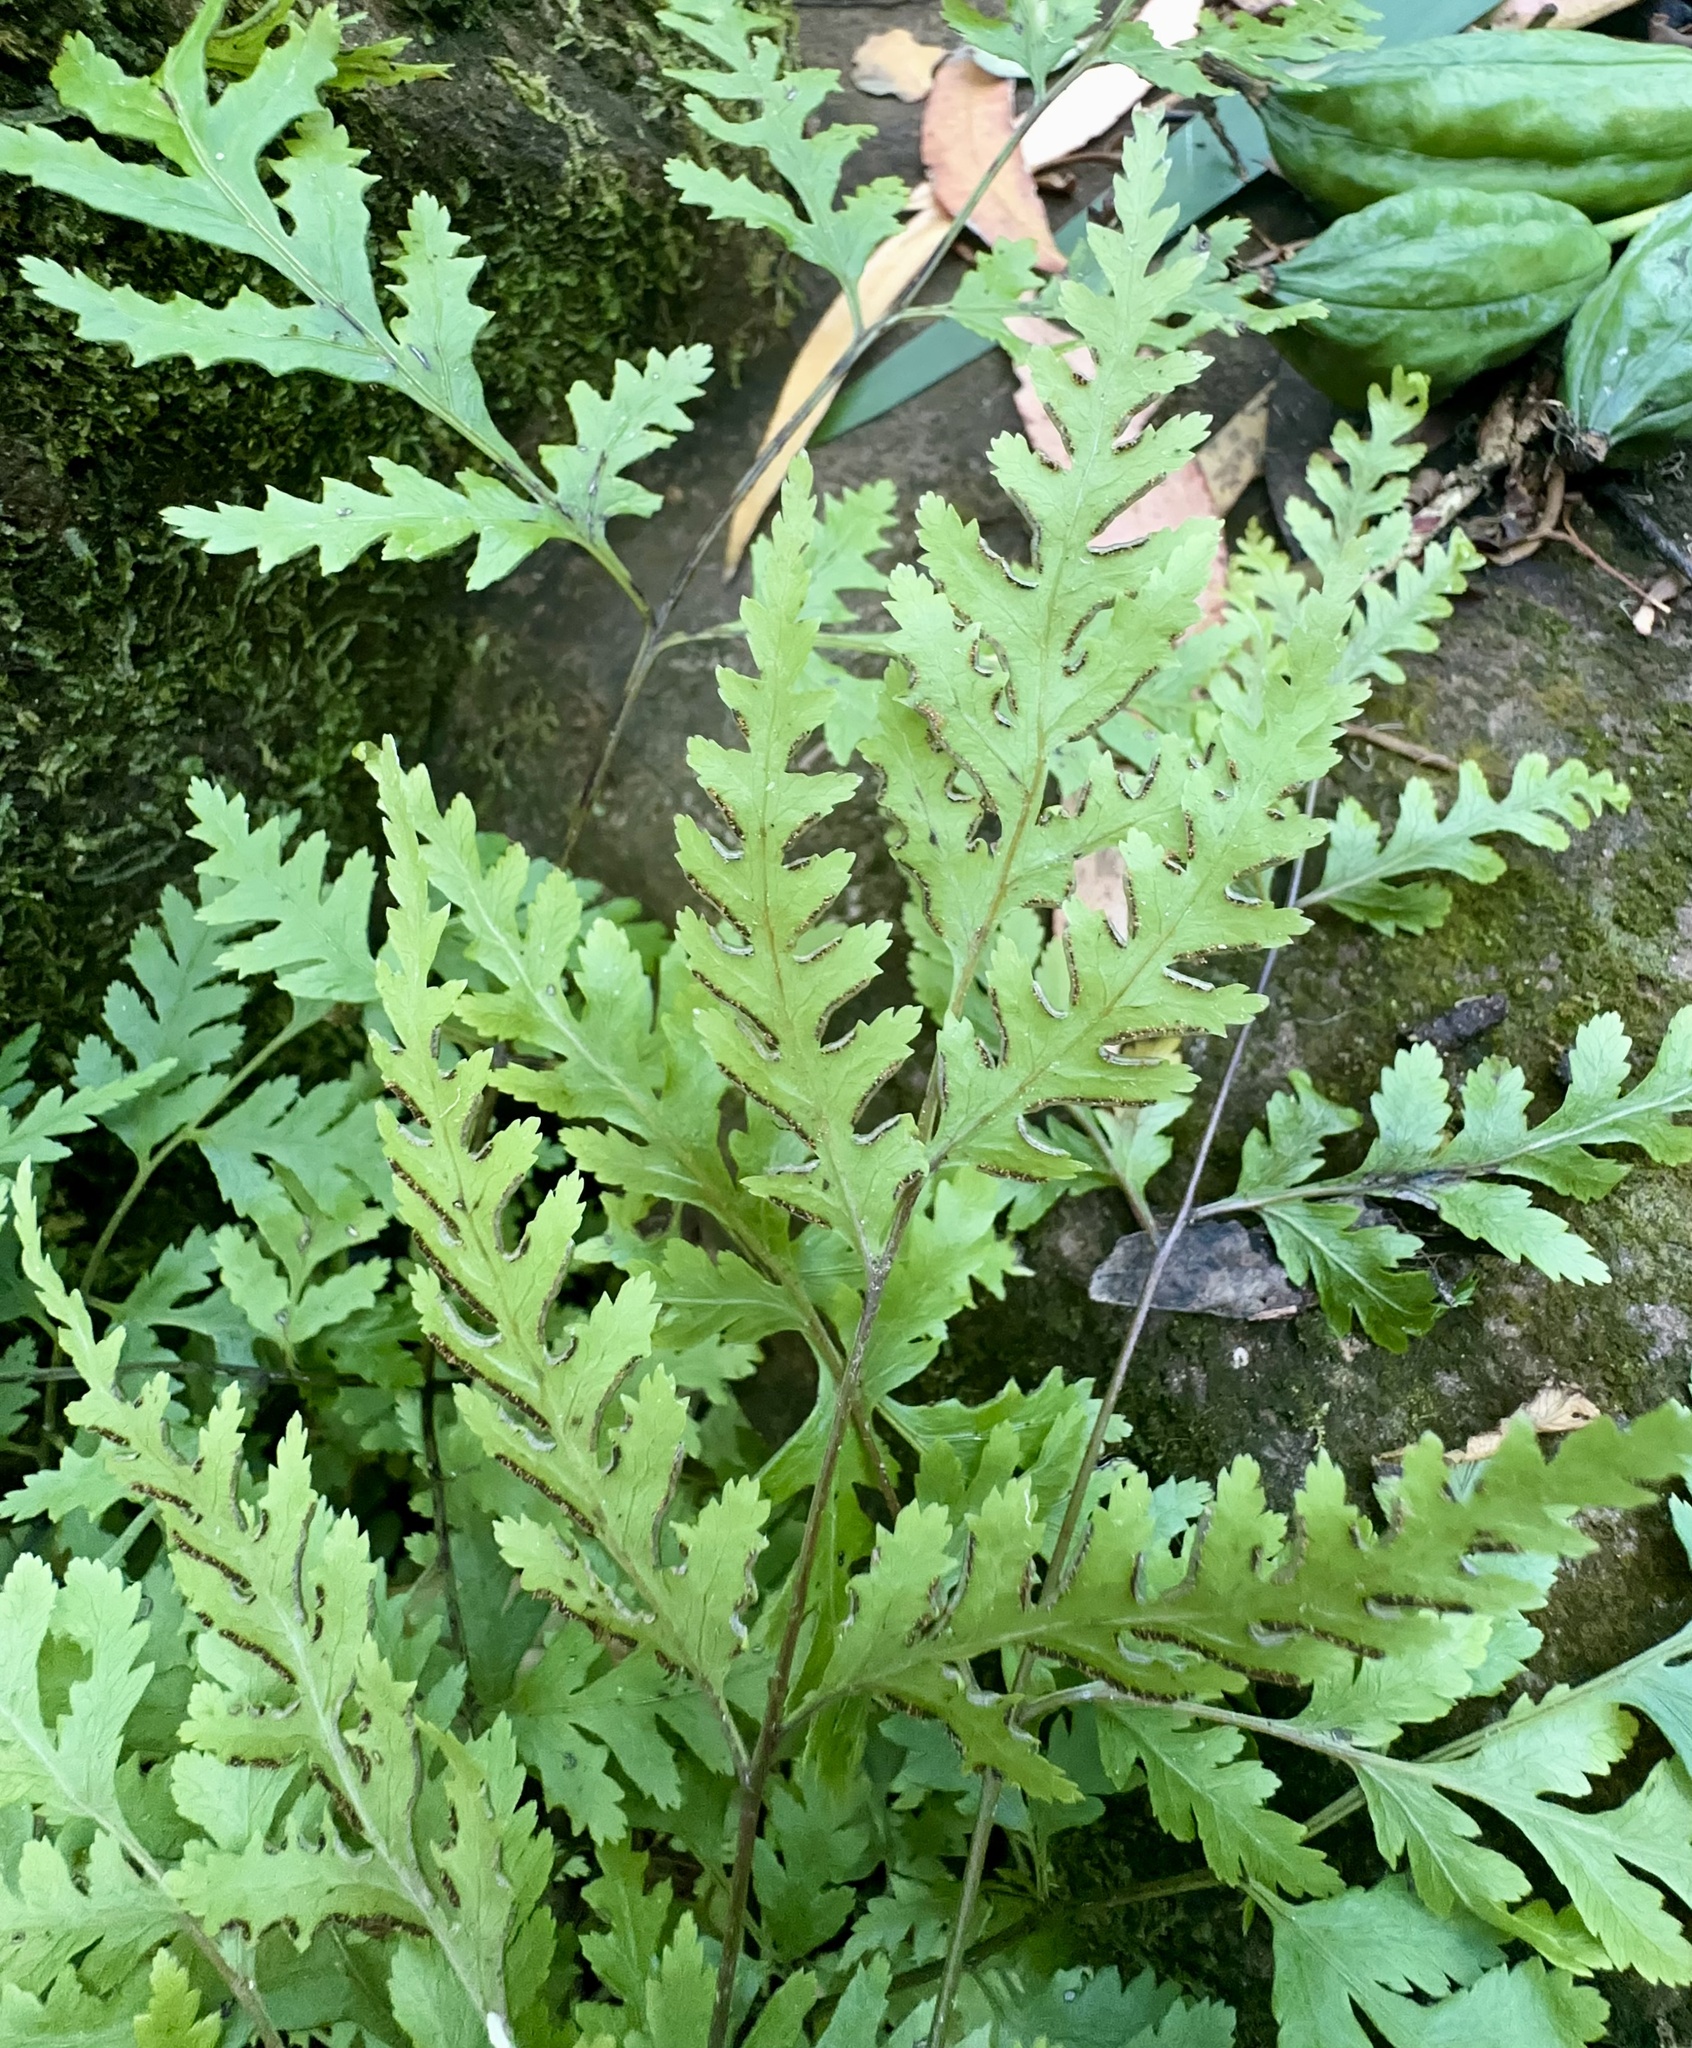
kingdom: Plantae
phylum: Tracheophyta
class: Polypodiopsida
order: Polypodiales
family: Pteridaceae
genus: Pteris
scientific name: Pteris macilenta
